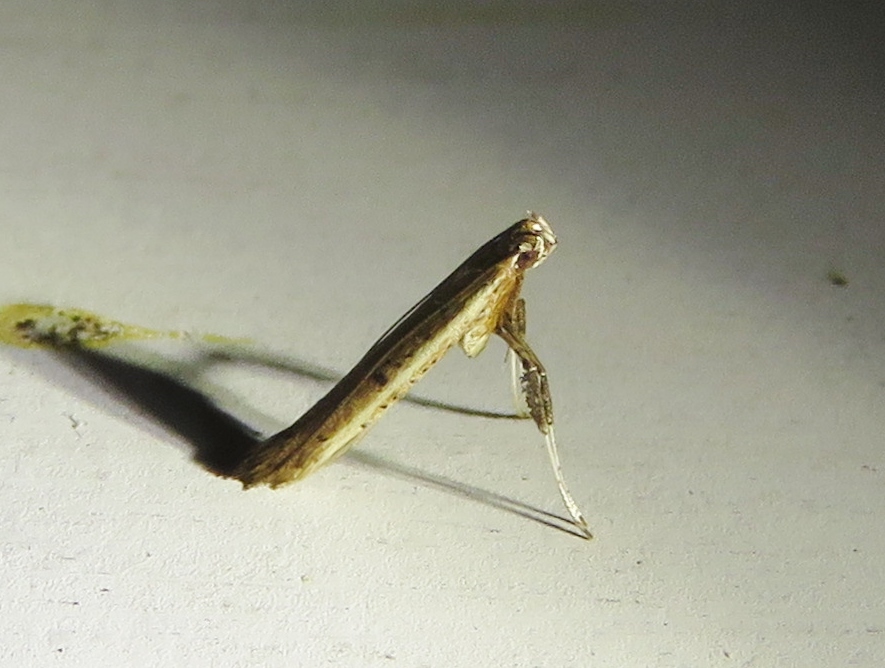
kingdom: Animalia
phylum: Arthropoda
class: Insecta
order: Lepidoptera
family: Gracillariidae
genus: Caloptilia
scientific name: Caloptilia violacella
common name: Tick-trefoil caloptilia moth
